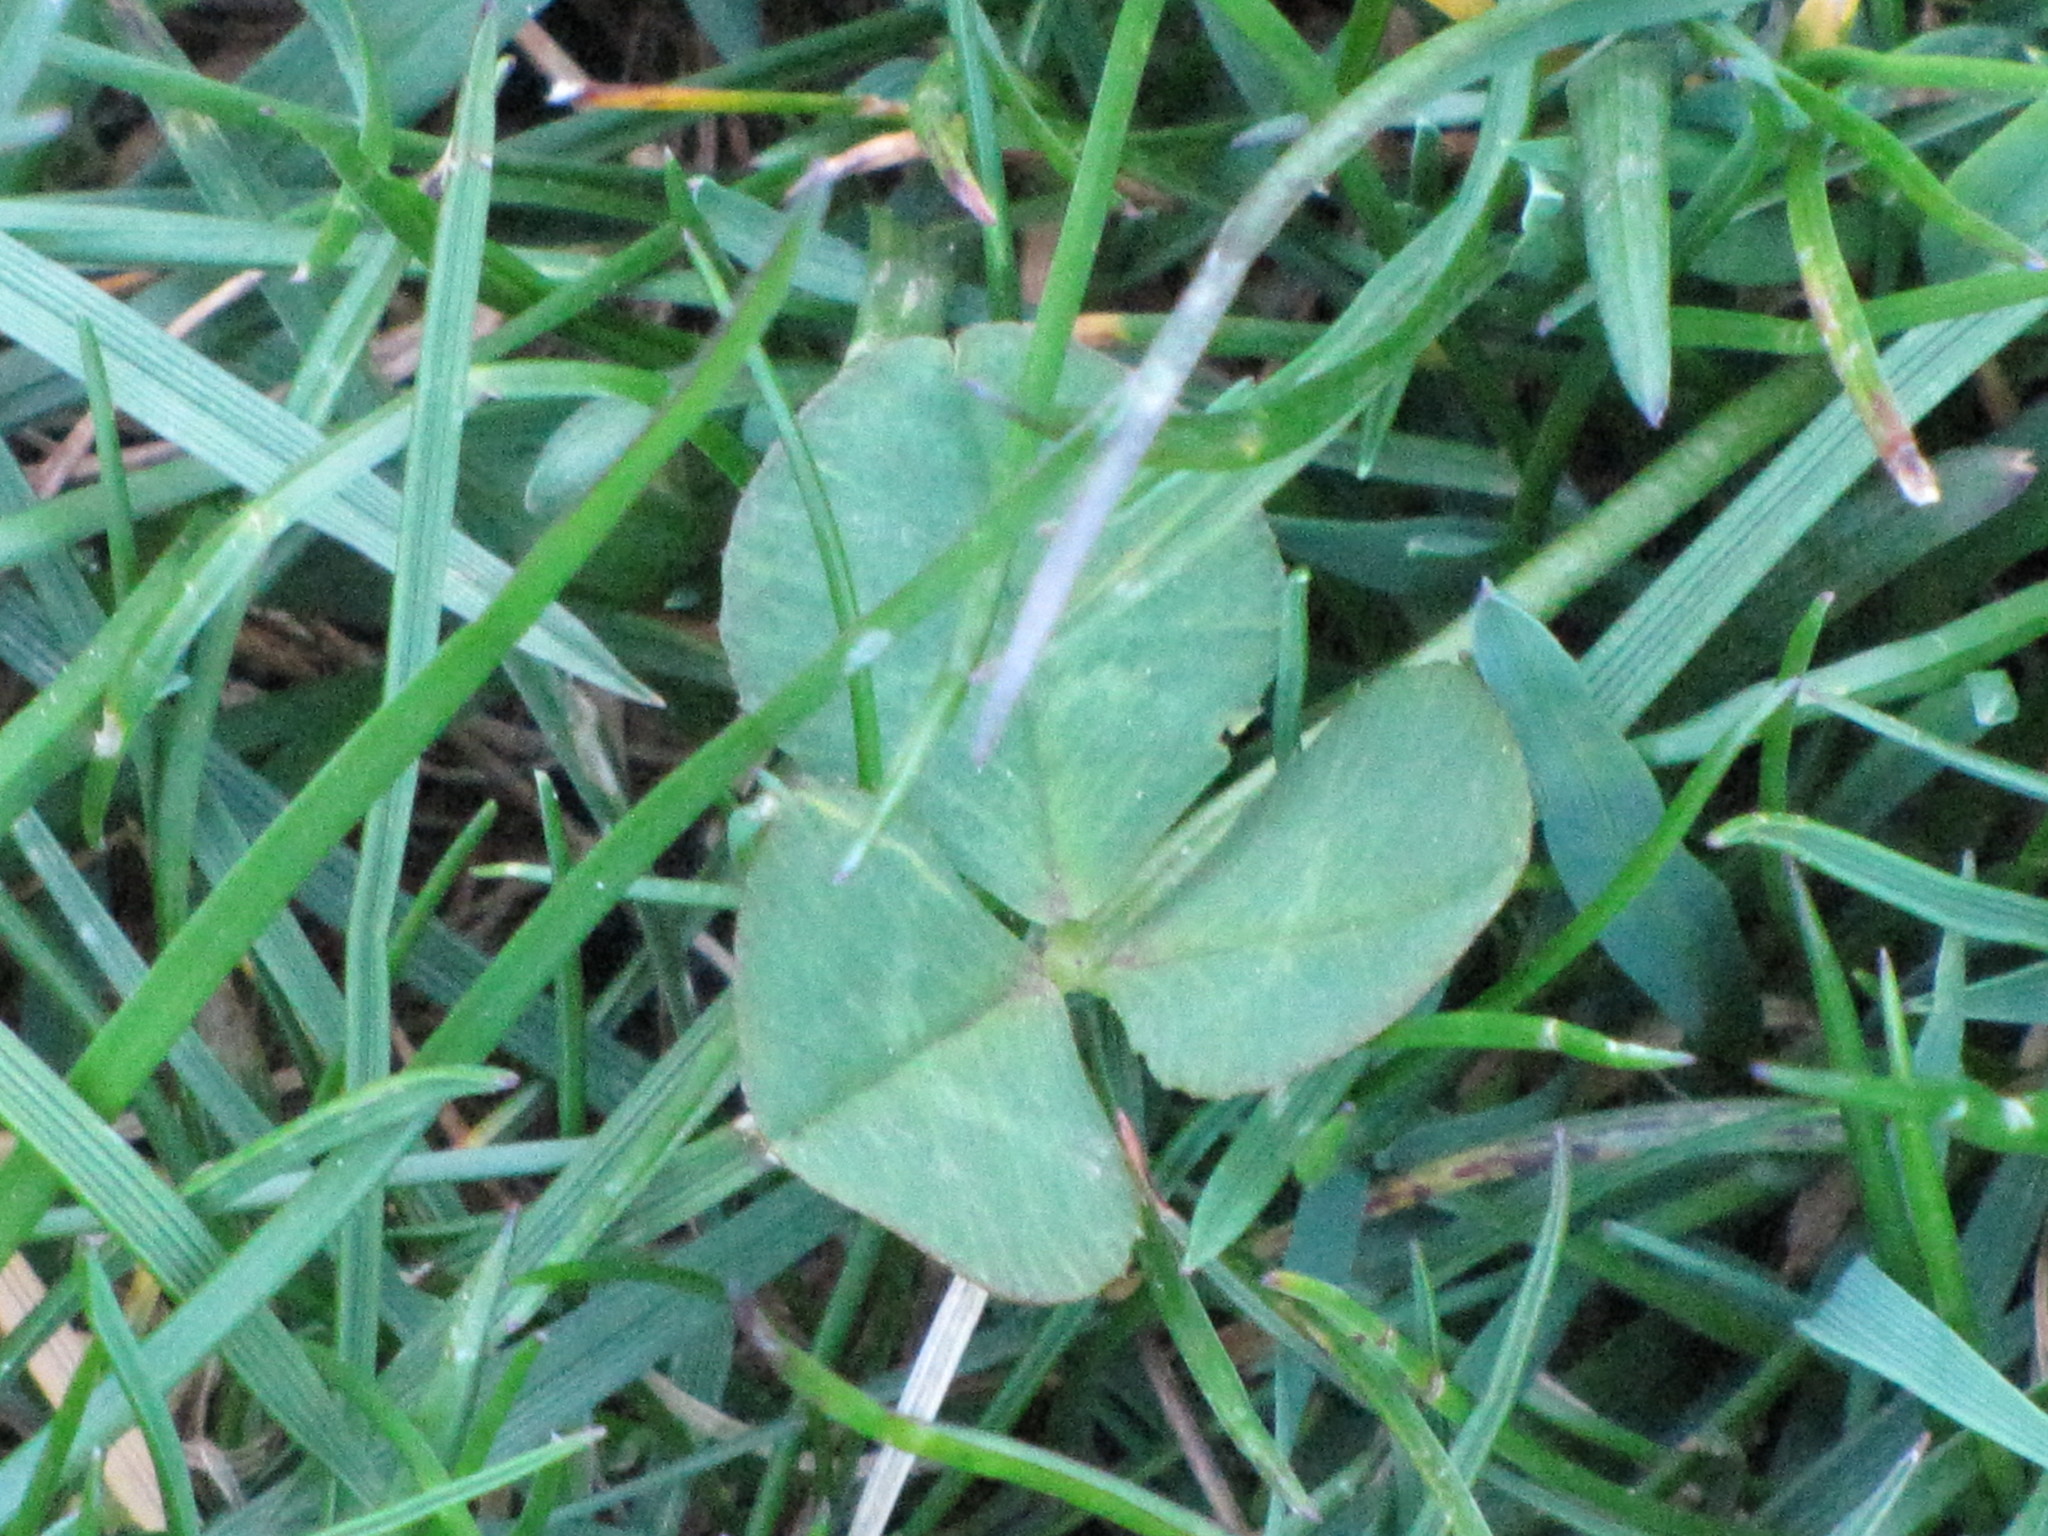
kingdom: Plantae
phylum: Tracheophyta
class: Magnoliopsida
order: Fabales
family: Fabaceae
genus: Trifolium
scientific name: Trifolium repens
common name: White clover
